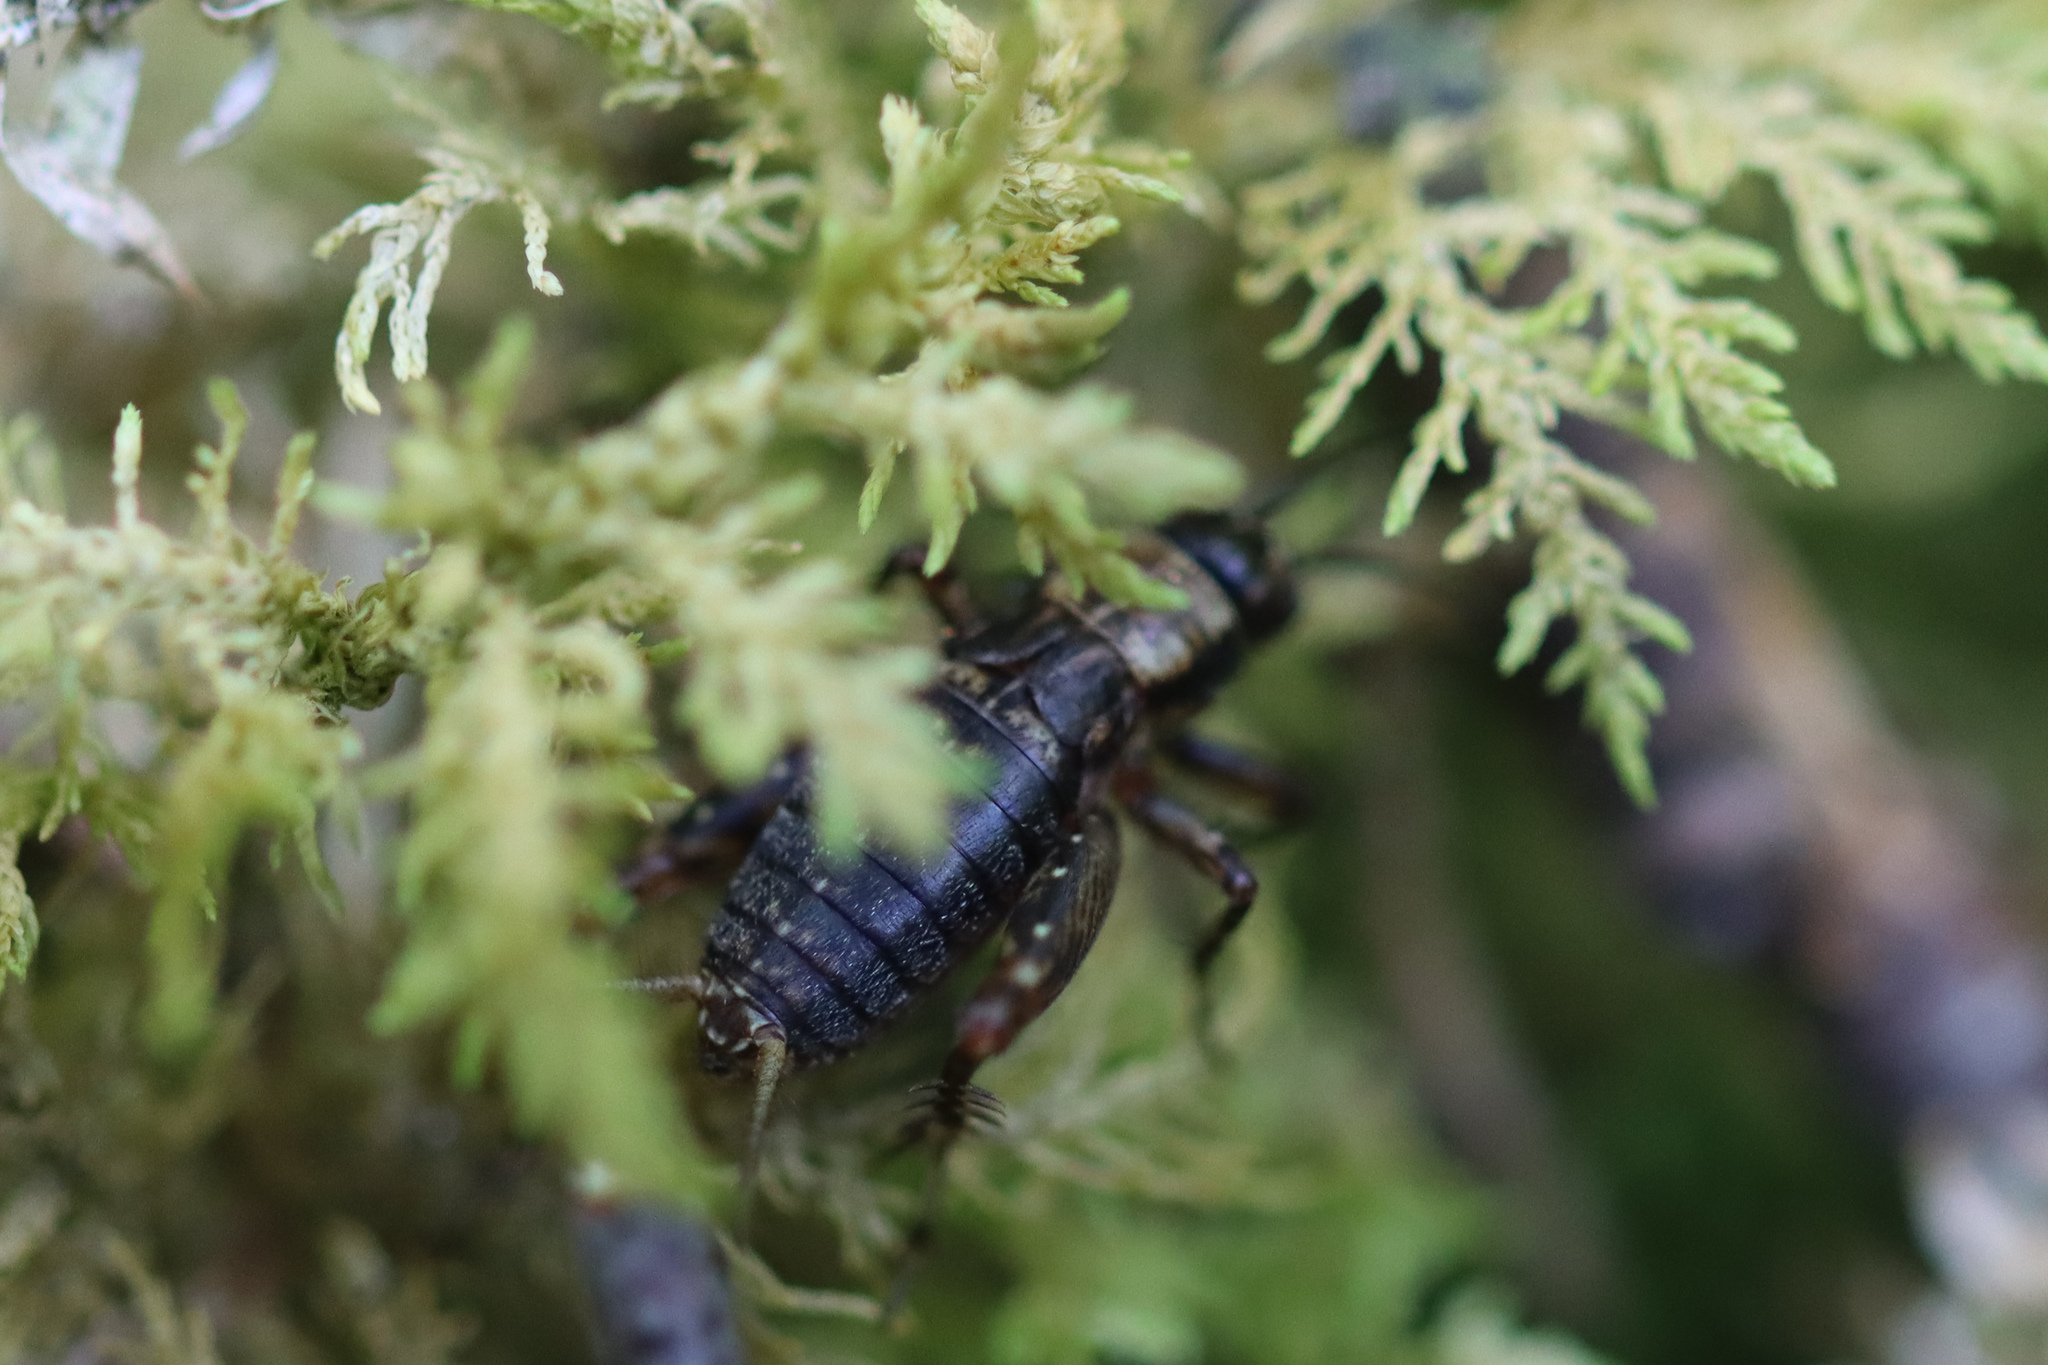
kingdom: Animalia
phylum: Arthropoda
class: Insecta
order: Orthoptera
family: Trigonidiidae
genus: Nemobius
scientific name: Nemobius sylvestris
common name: Wood-cricket
